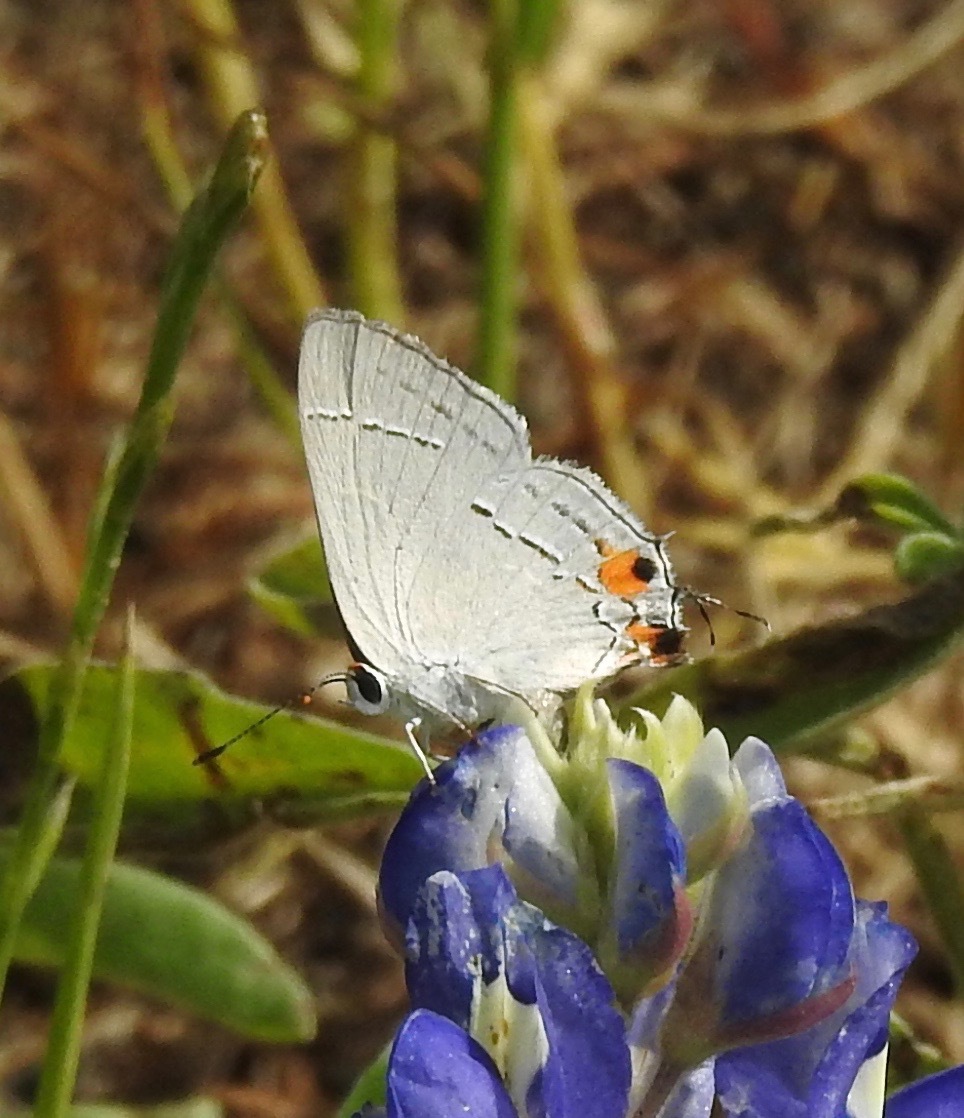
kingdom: Animalia
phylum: Arthropoda
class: Insecta
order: Lepidoptera
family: Lycaenidae
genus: Strymon
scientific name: Strymon melinus
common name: Gray hairstreak
